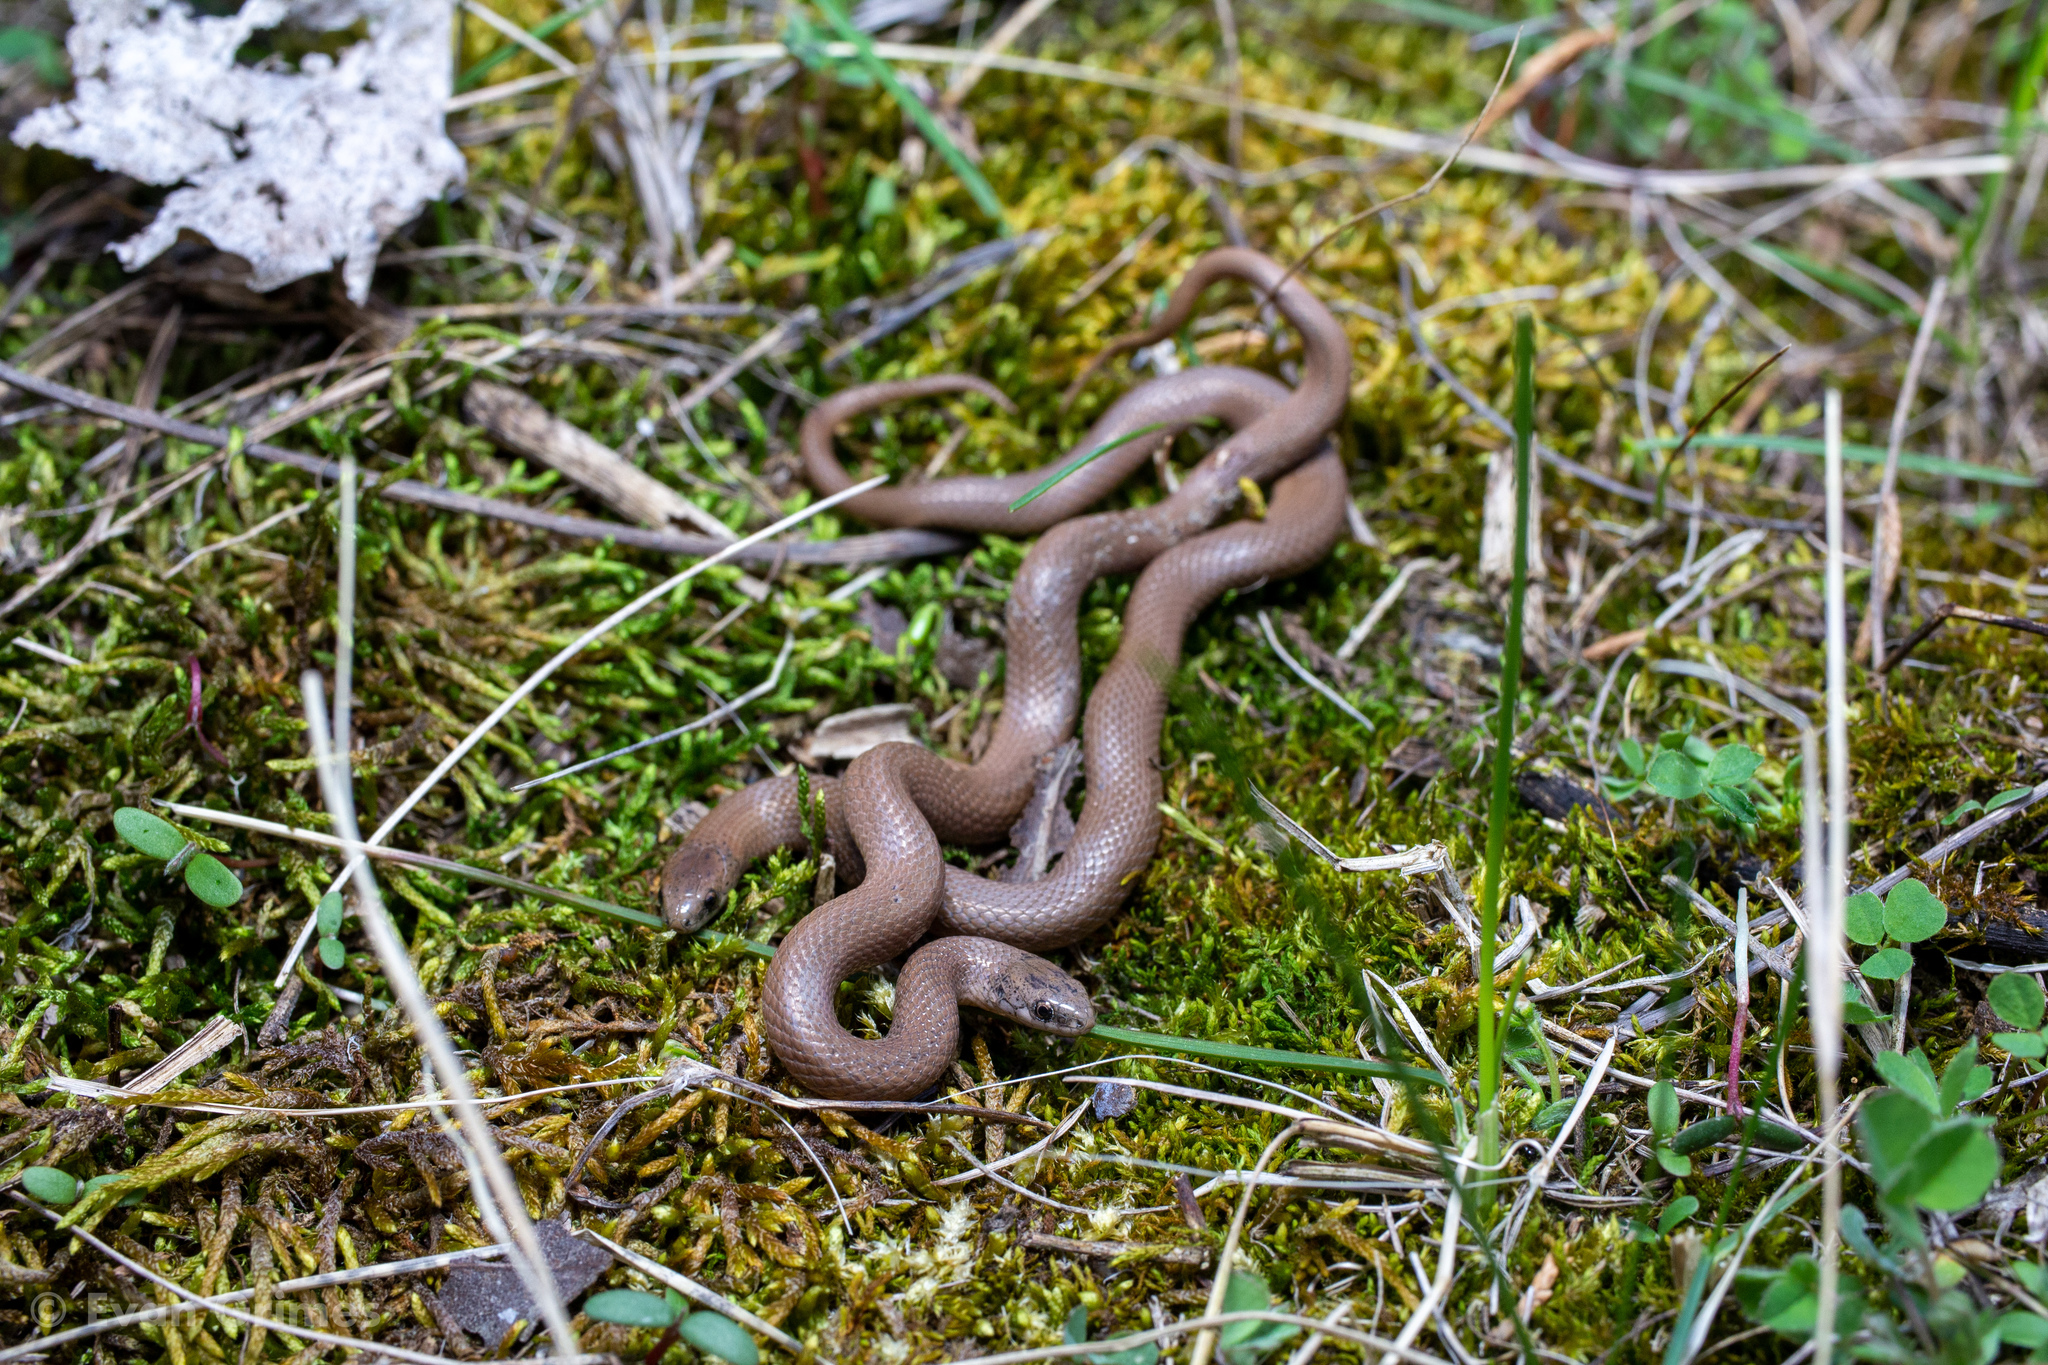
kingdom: Animalia
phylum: Chordata
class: Squamata
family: Colubridae
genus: Virginia
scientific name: Virginia valeriae
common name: Smooth earth snake
